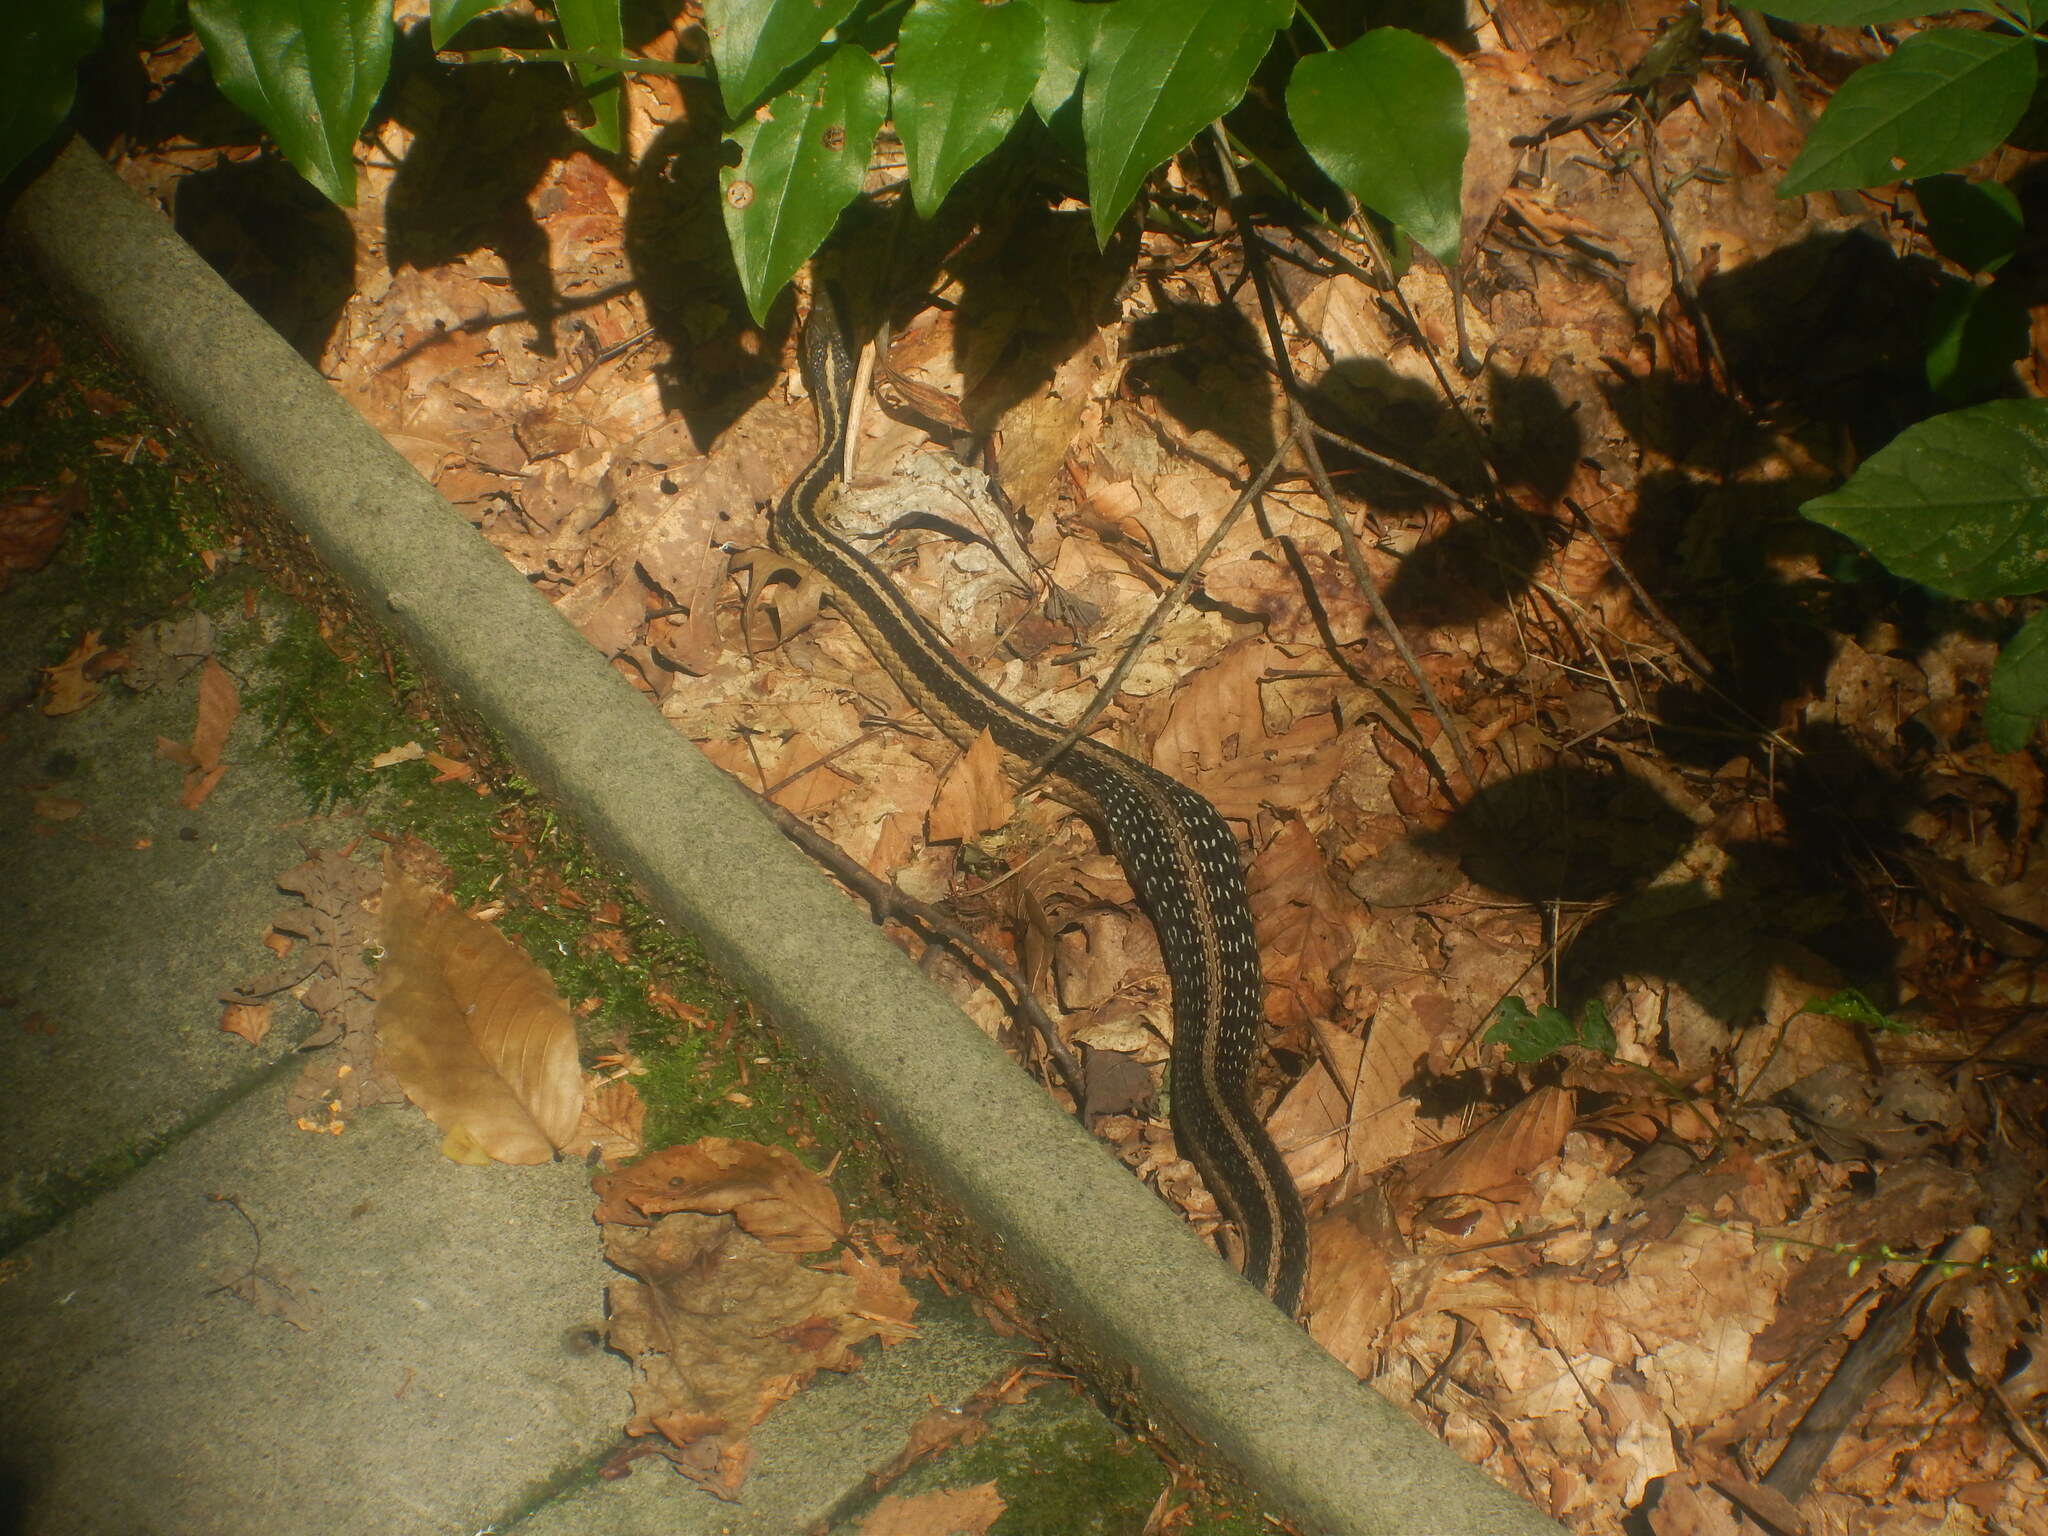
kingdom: Animalia
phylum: Chordata
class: Squamata
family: Colubridae
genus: Thamnophis
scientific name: Thamnophis sirtalis
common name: Common garter snake
